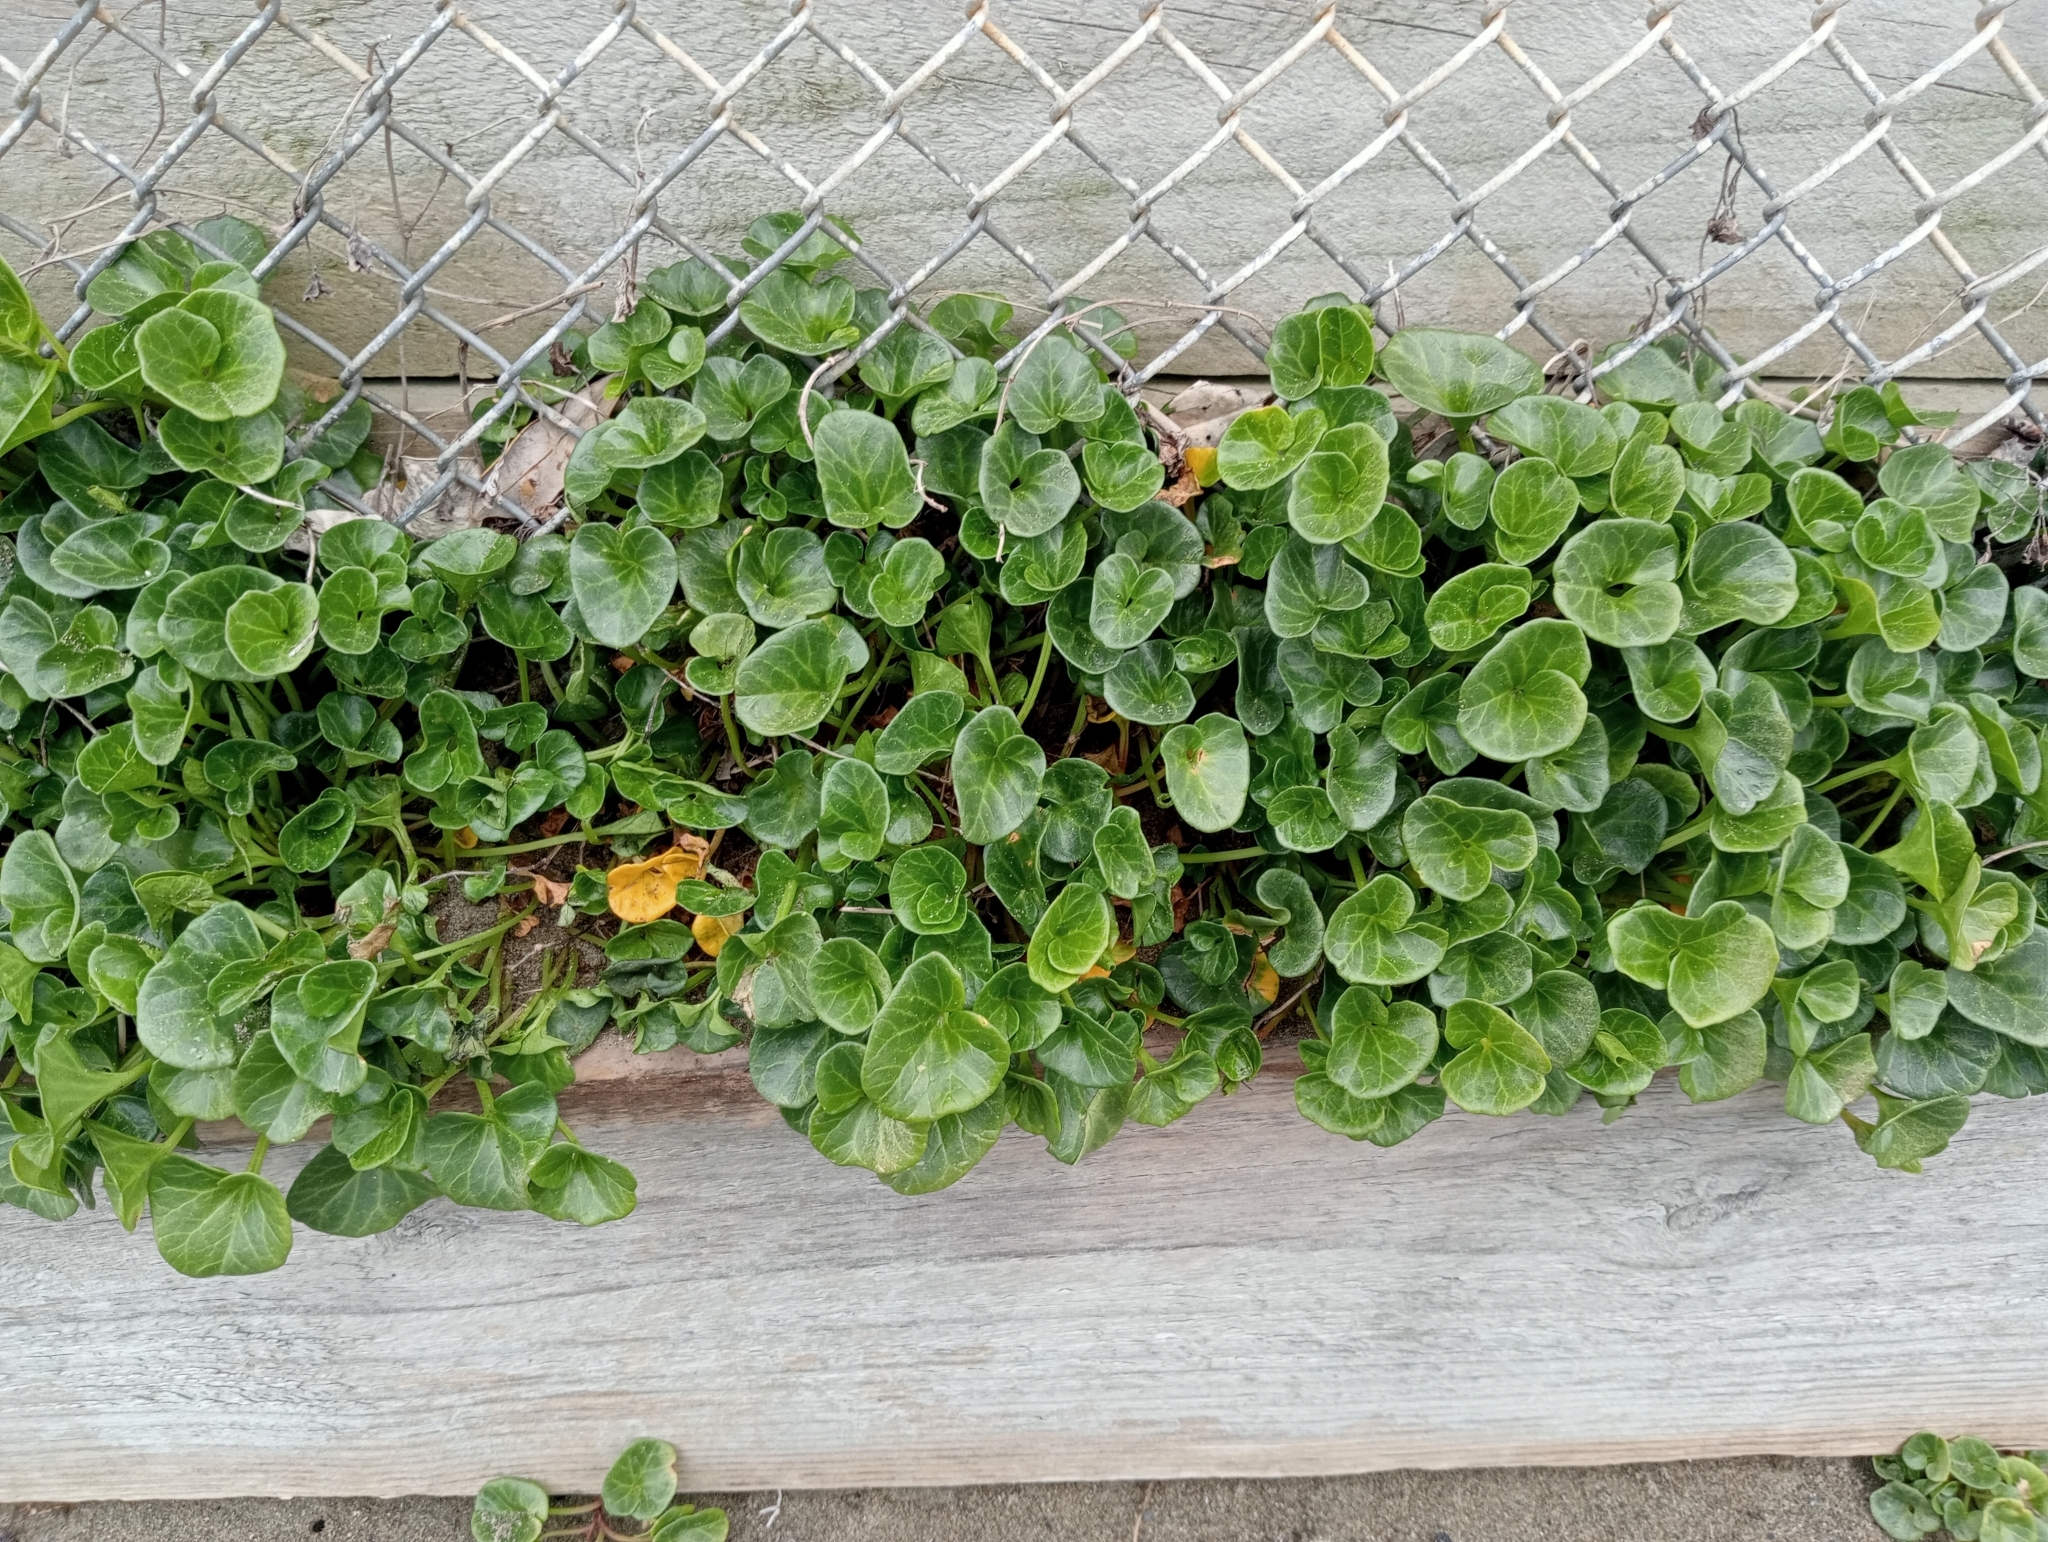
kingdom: Plantae
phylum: Tracheophyta
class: Magnoliopsida
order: Solanales
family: Convolvulaceae
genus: Calystegia
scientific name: Calystegia soldanella
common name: Sea bindweed
